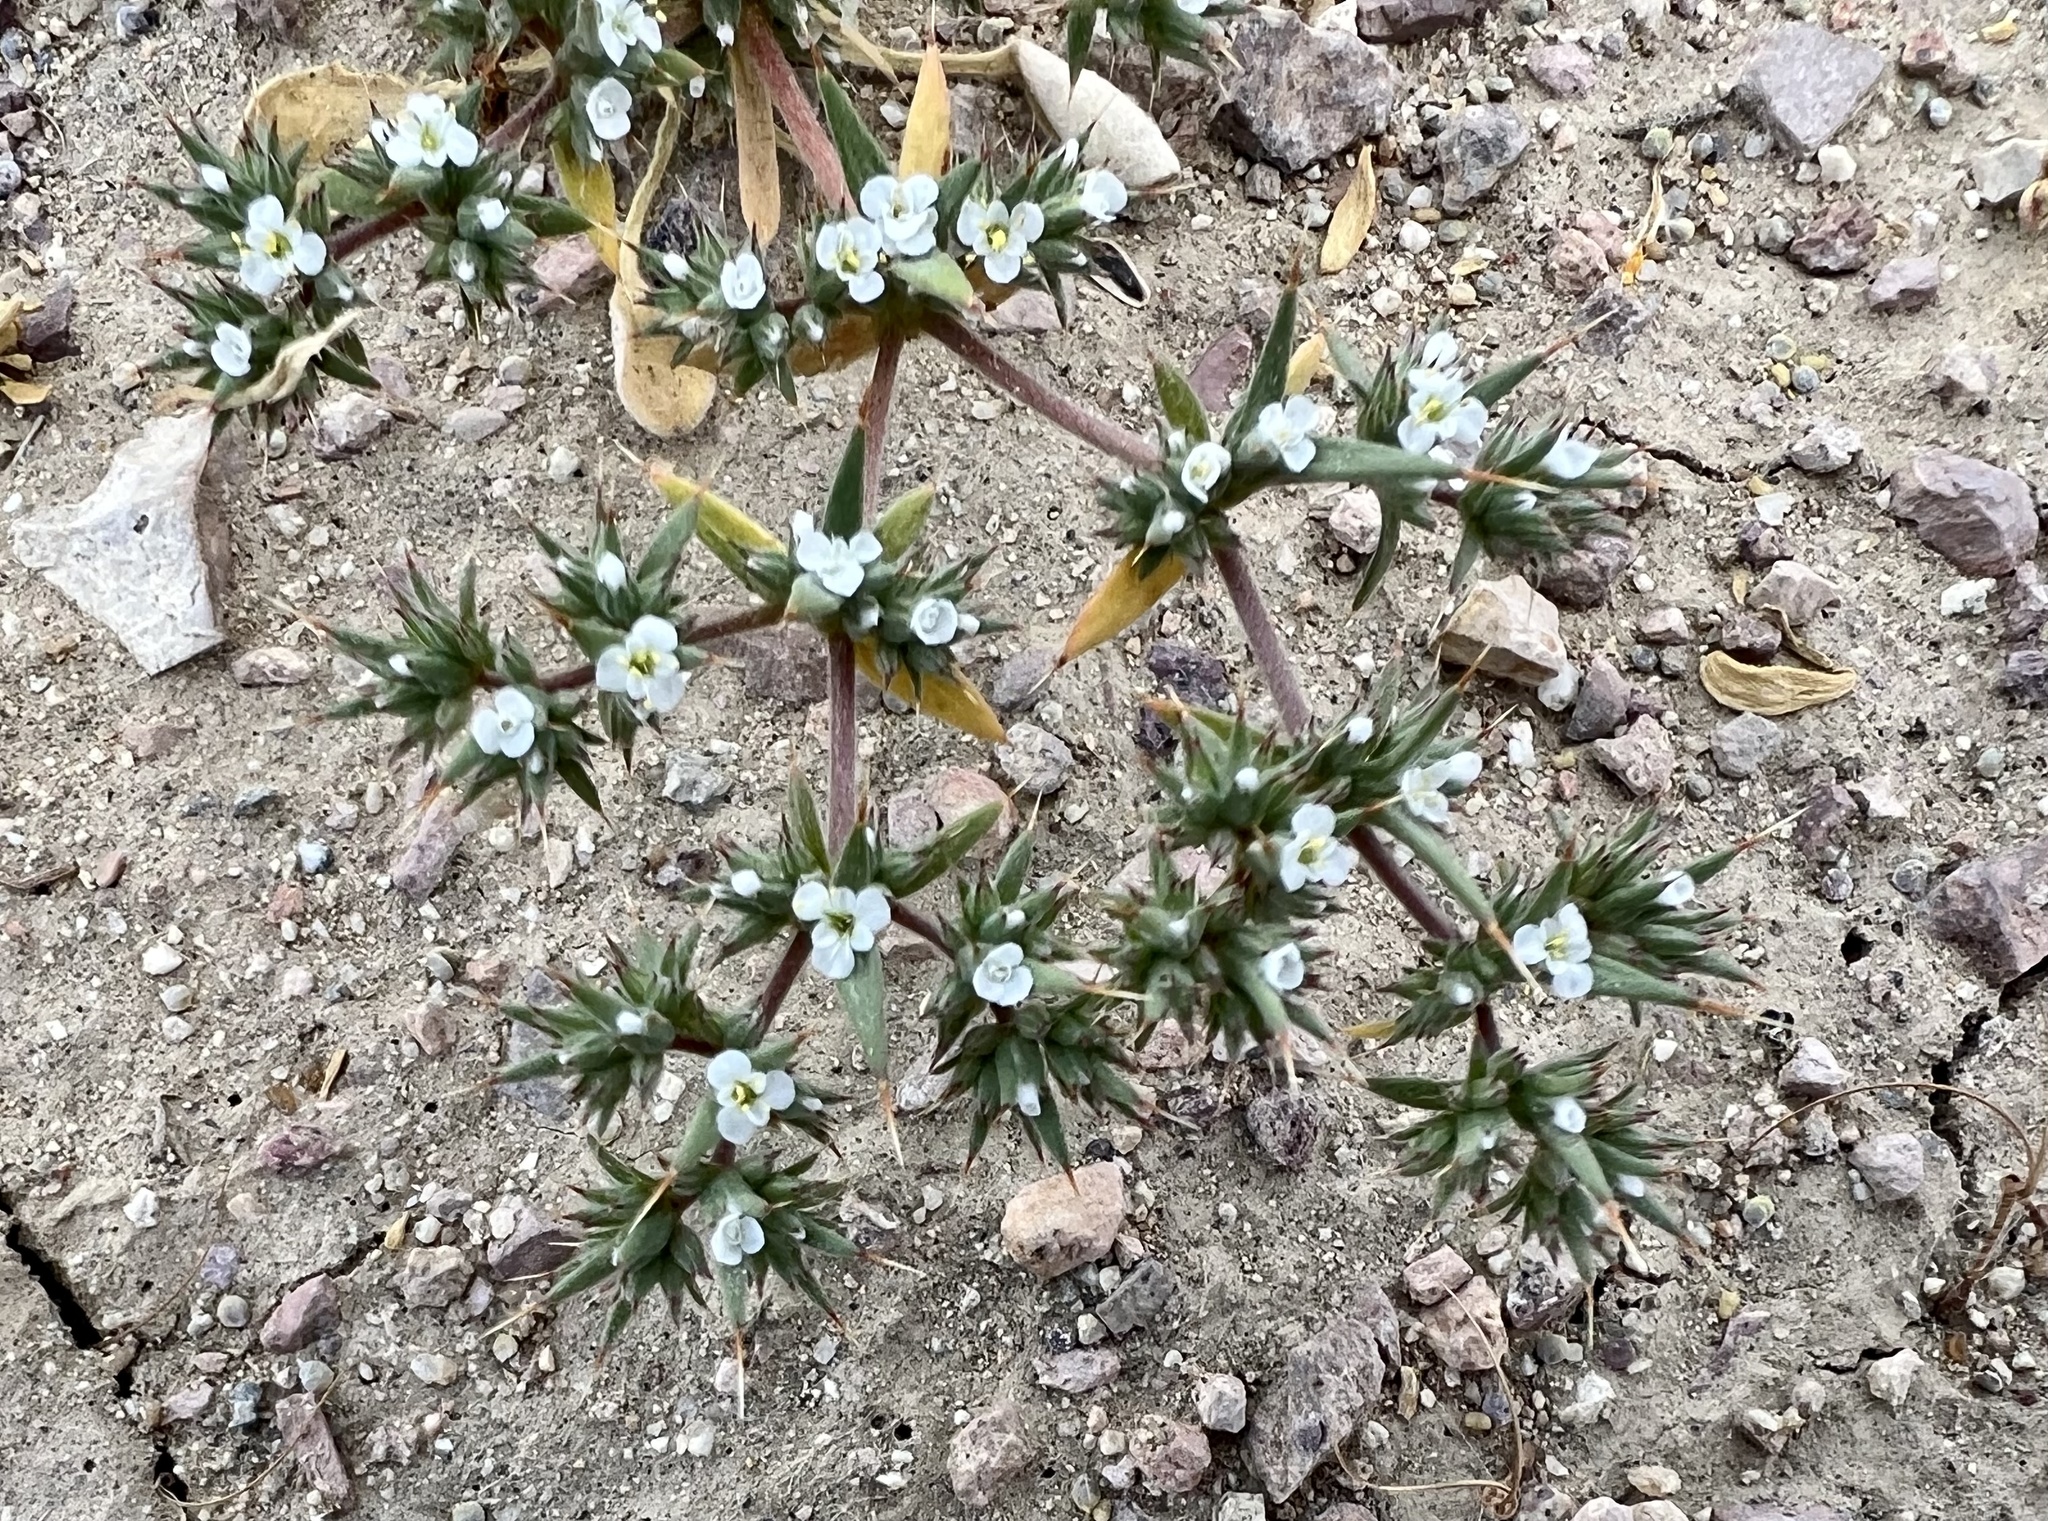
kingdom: Plantae
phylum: Tracheophyta
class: Magnoliopsida
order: Caryophyllales
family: Polygonaceae
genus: Chorizanthe
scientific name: Chorizanthe spinosa
